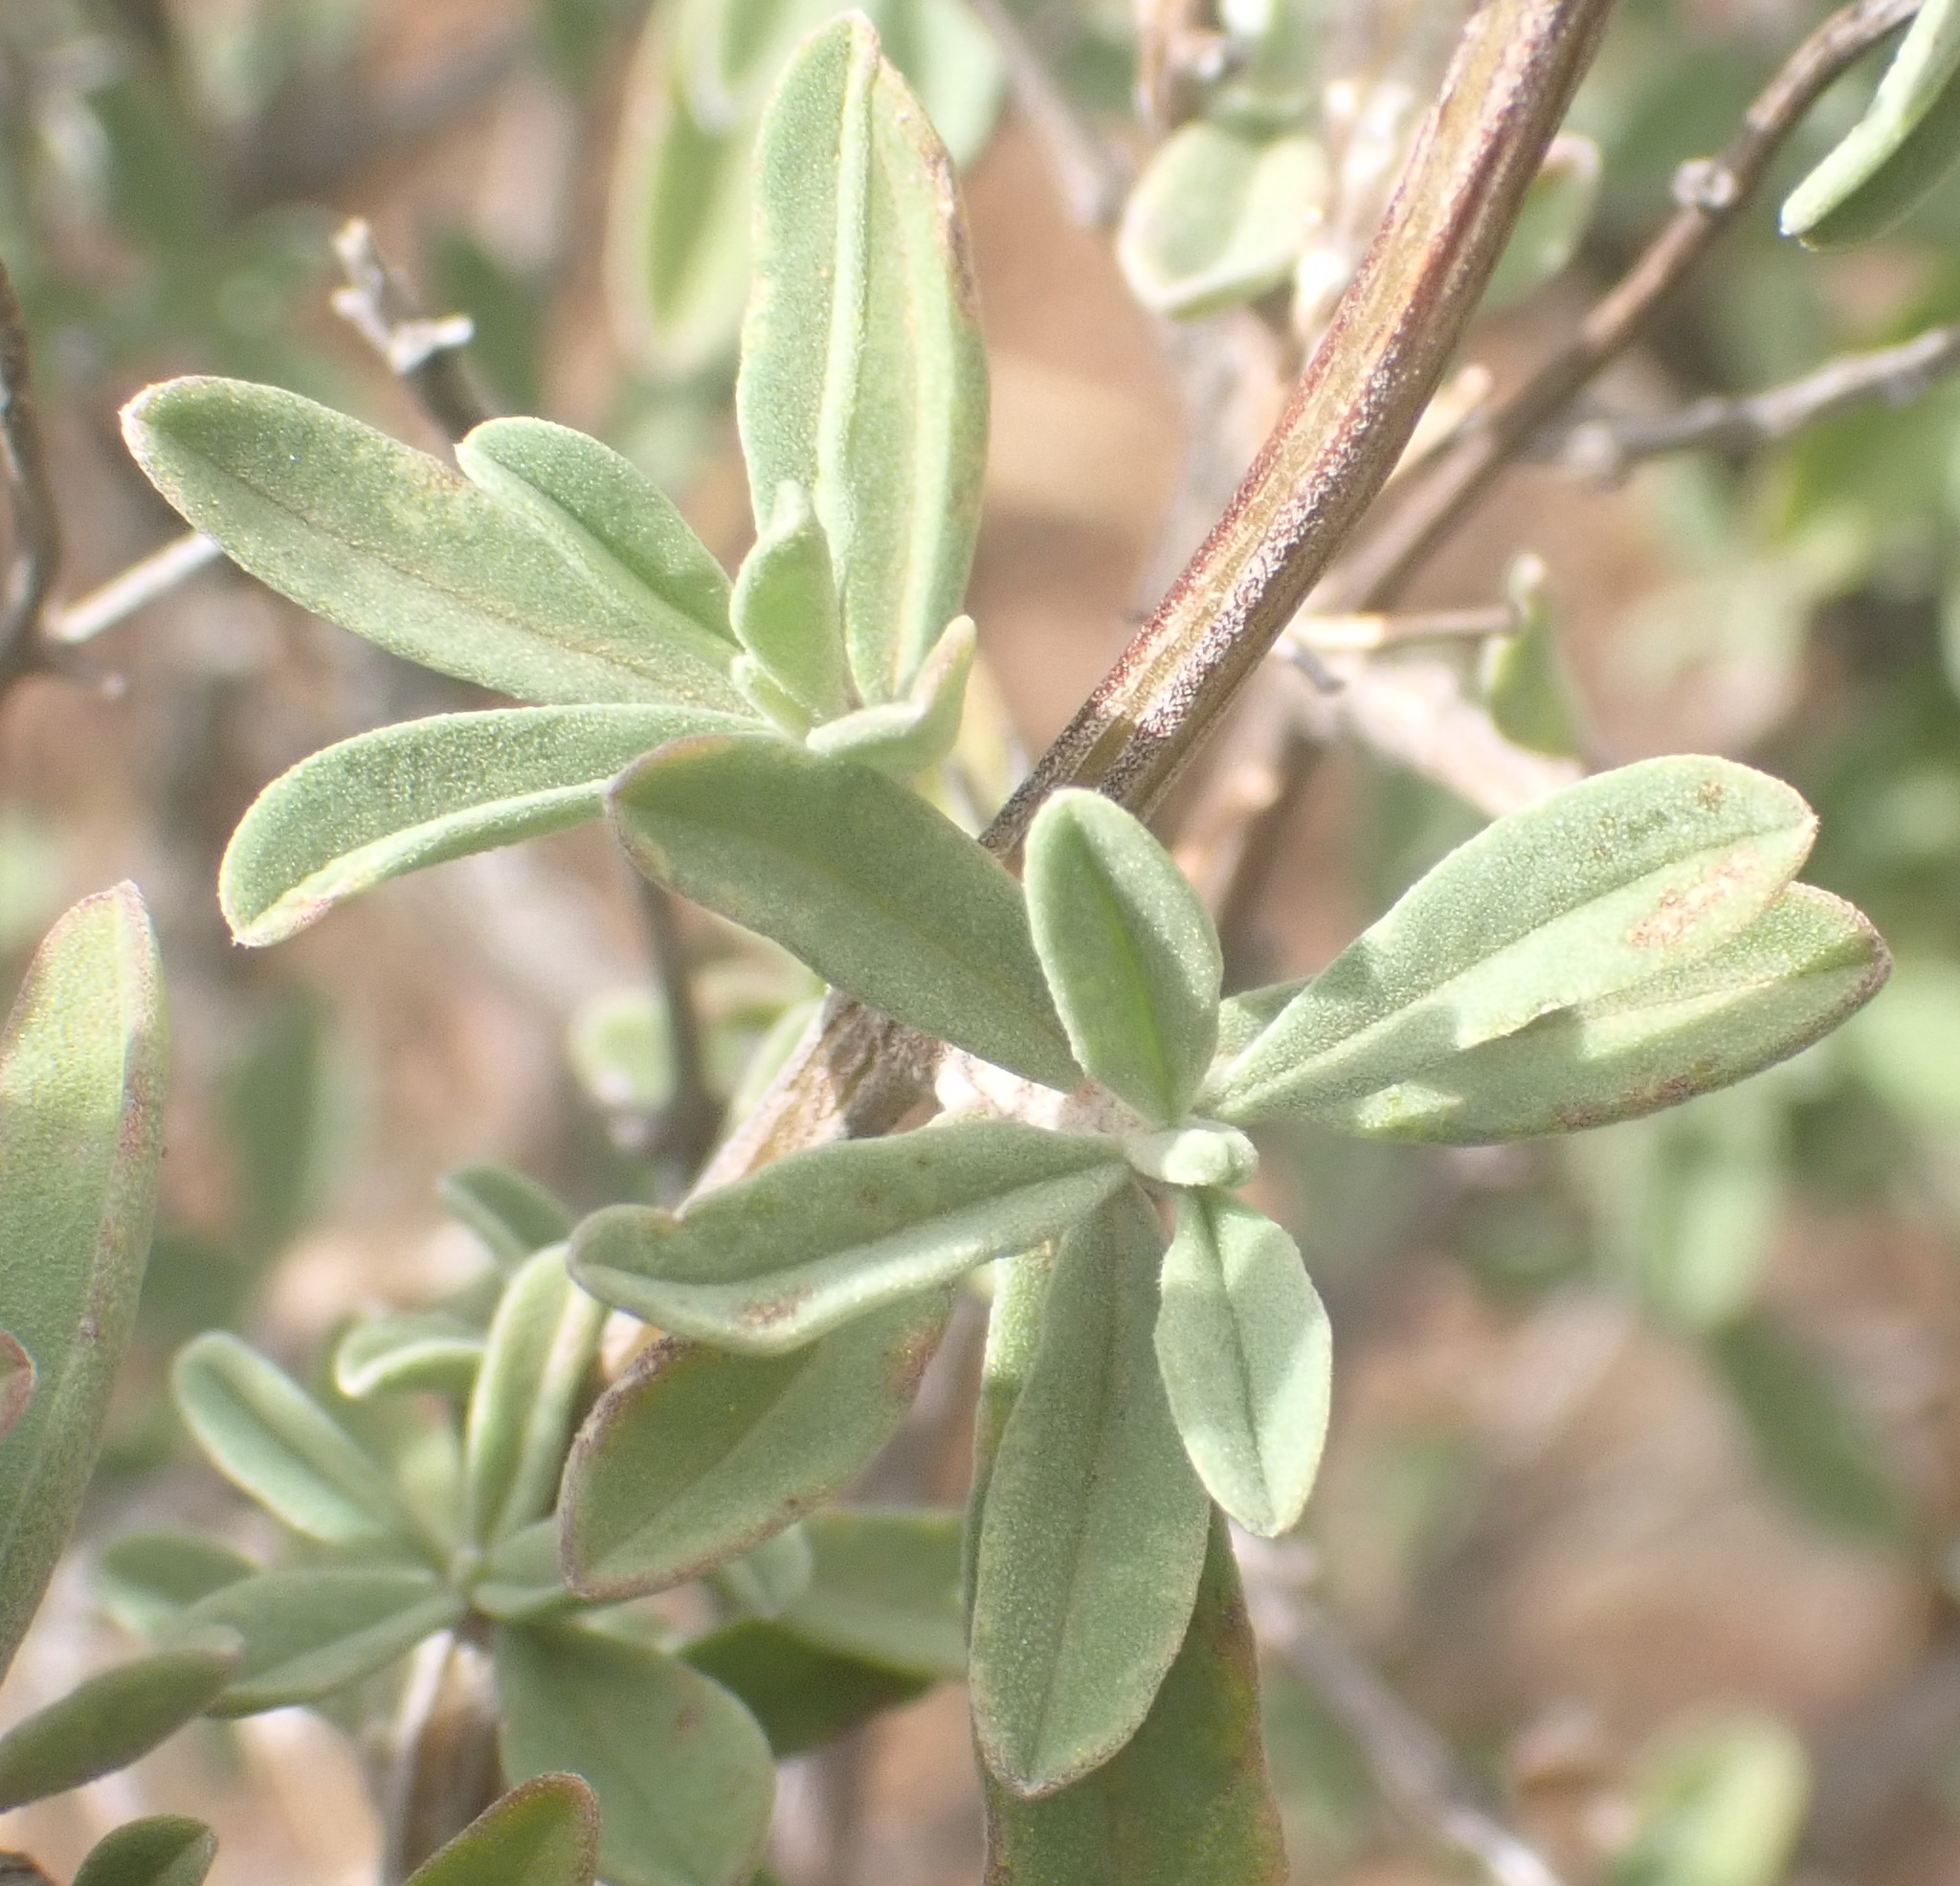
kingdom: Plantae
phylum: Tracheophyta
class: Magnoliopsida
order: Lamiales
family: Lamiaceae
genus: Ocimum
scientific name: Ocimum obovatum
